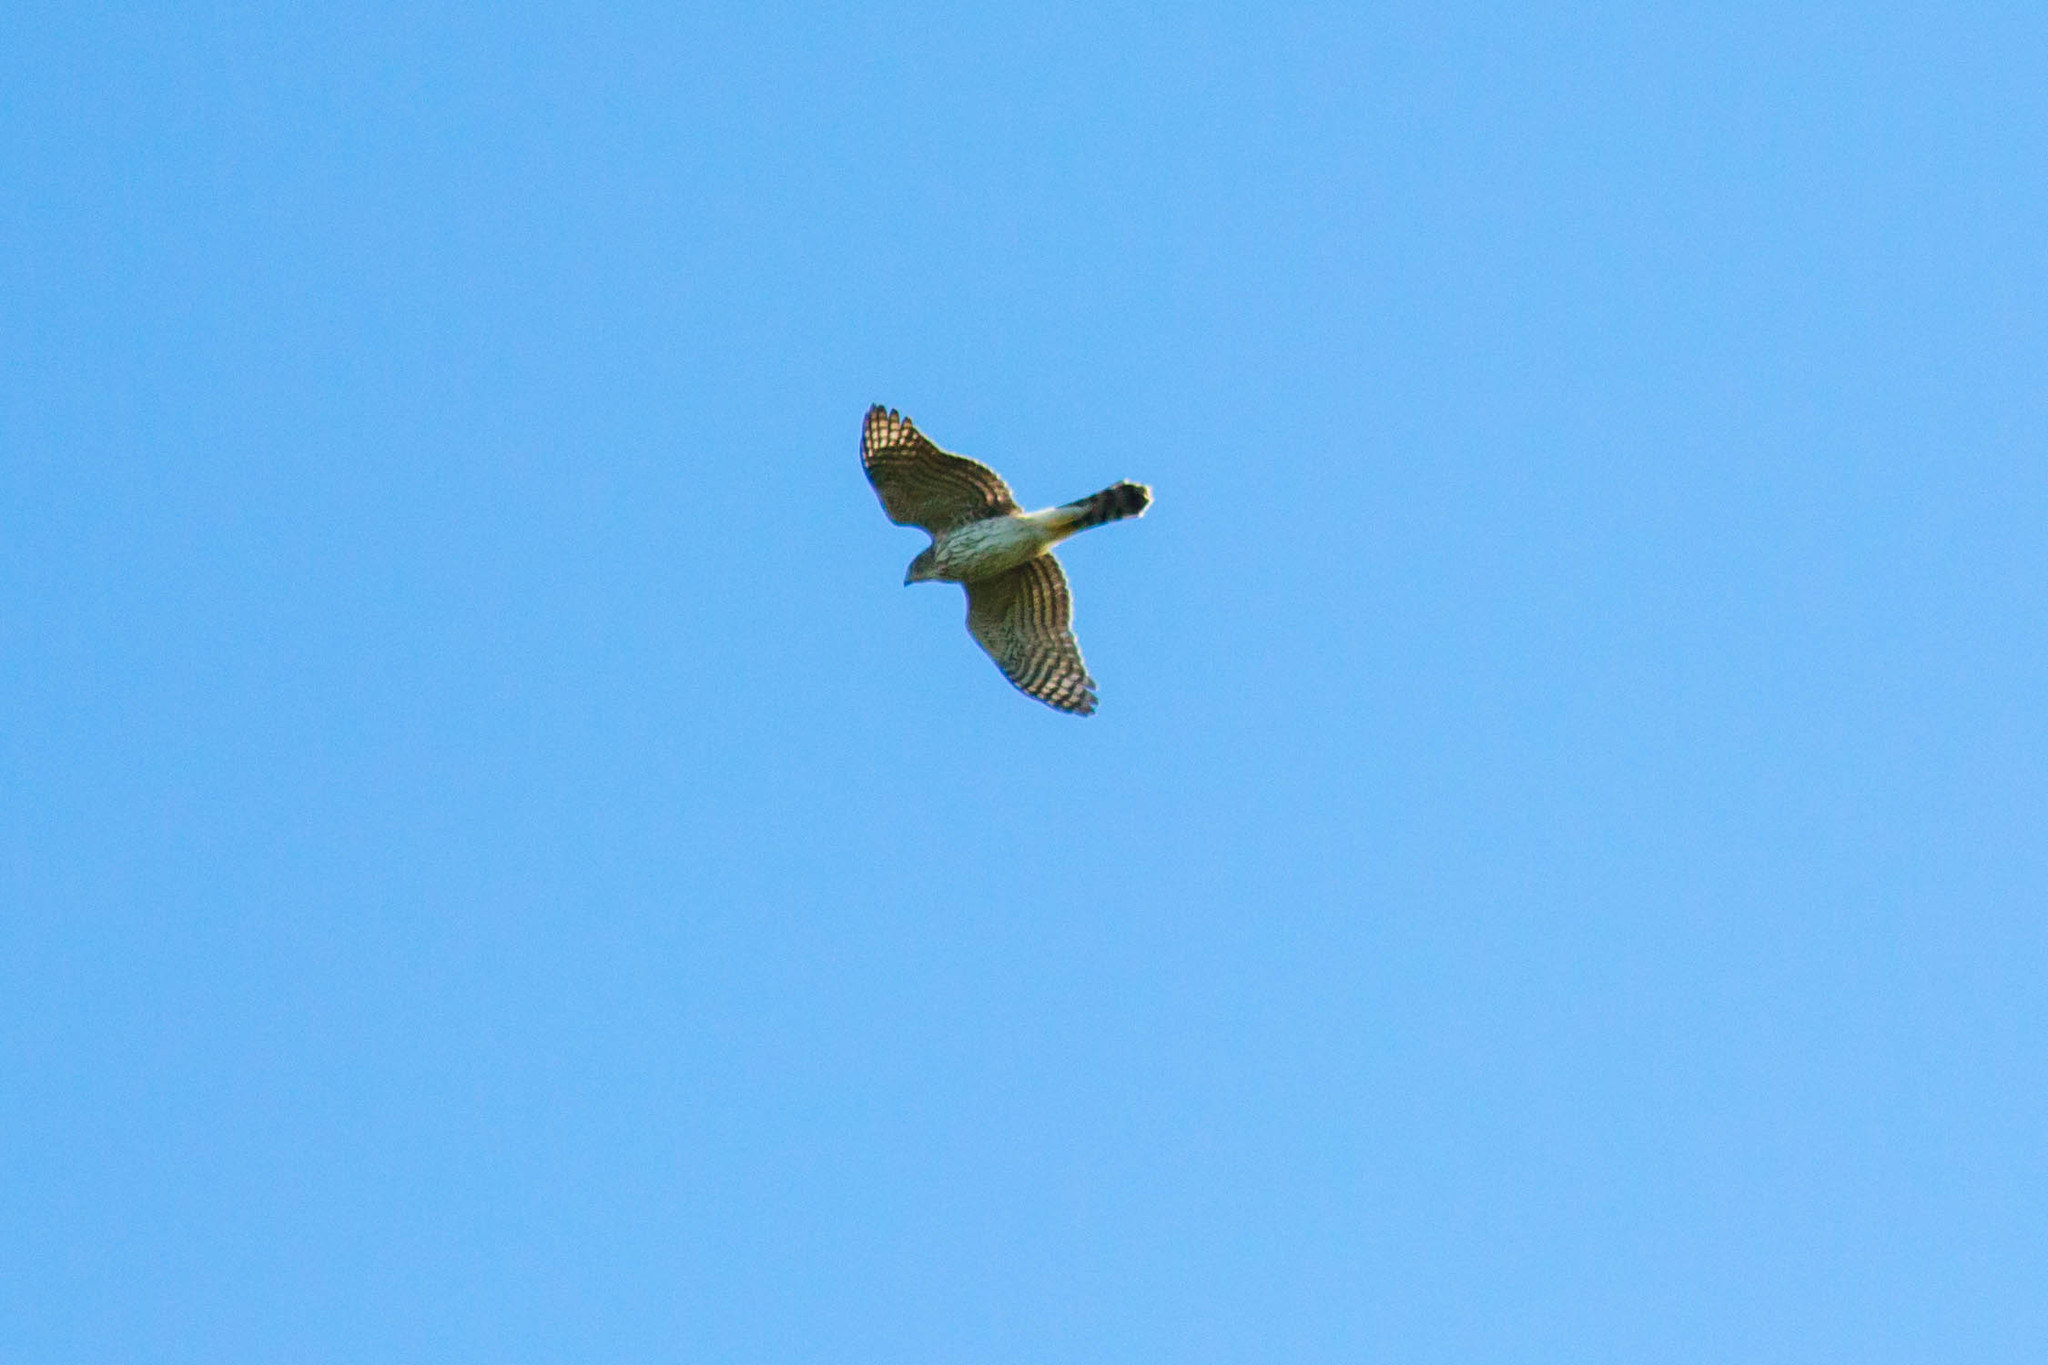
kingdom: Animalia
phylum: Chordata
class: Aves
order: Accipitriformes
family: Accipitridae
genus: Accipiter
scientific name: Accipiter cooperii
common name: Cooper's hawk
